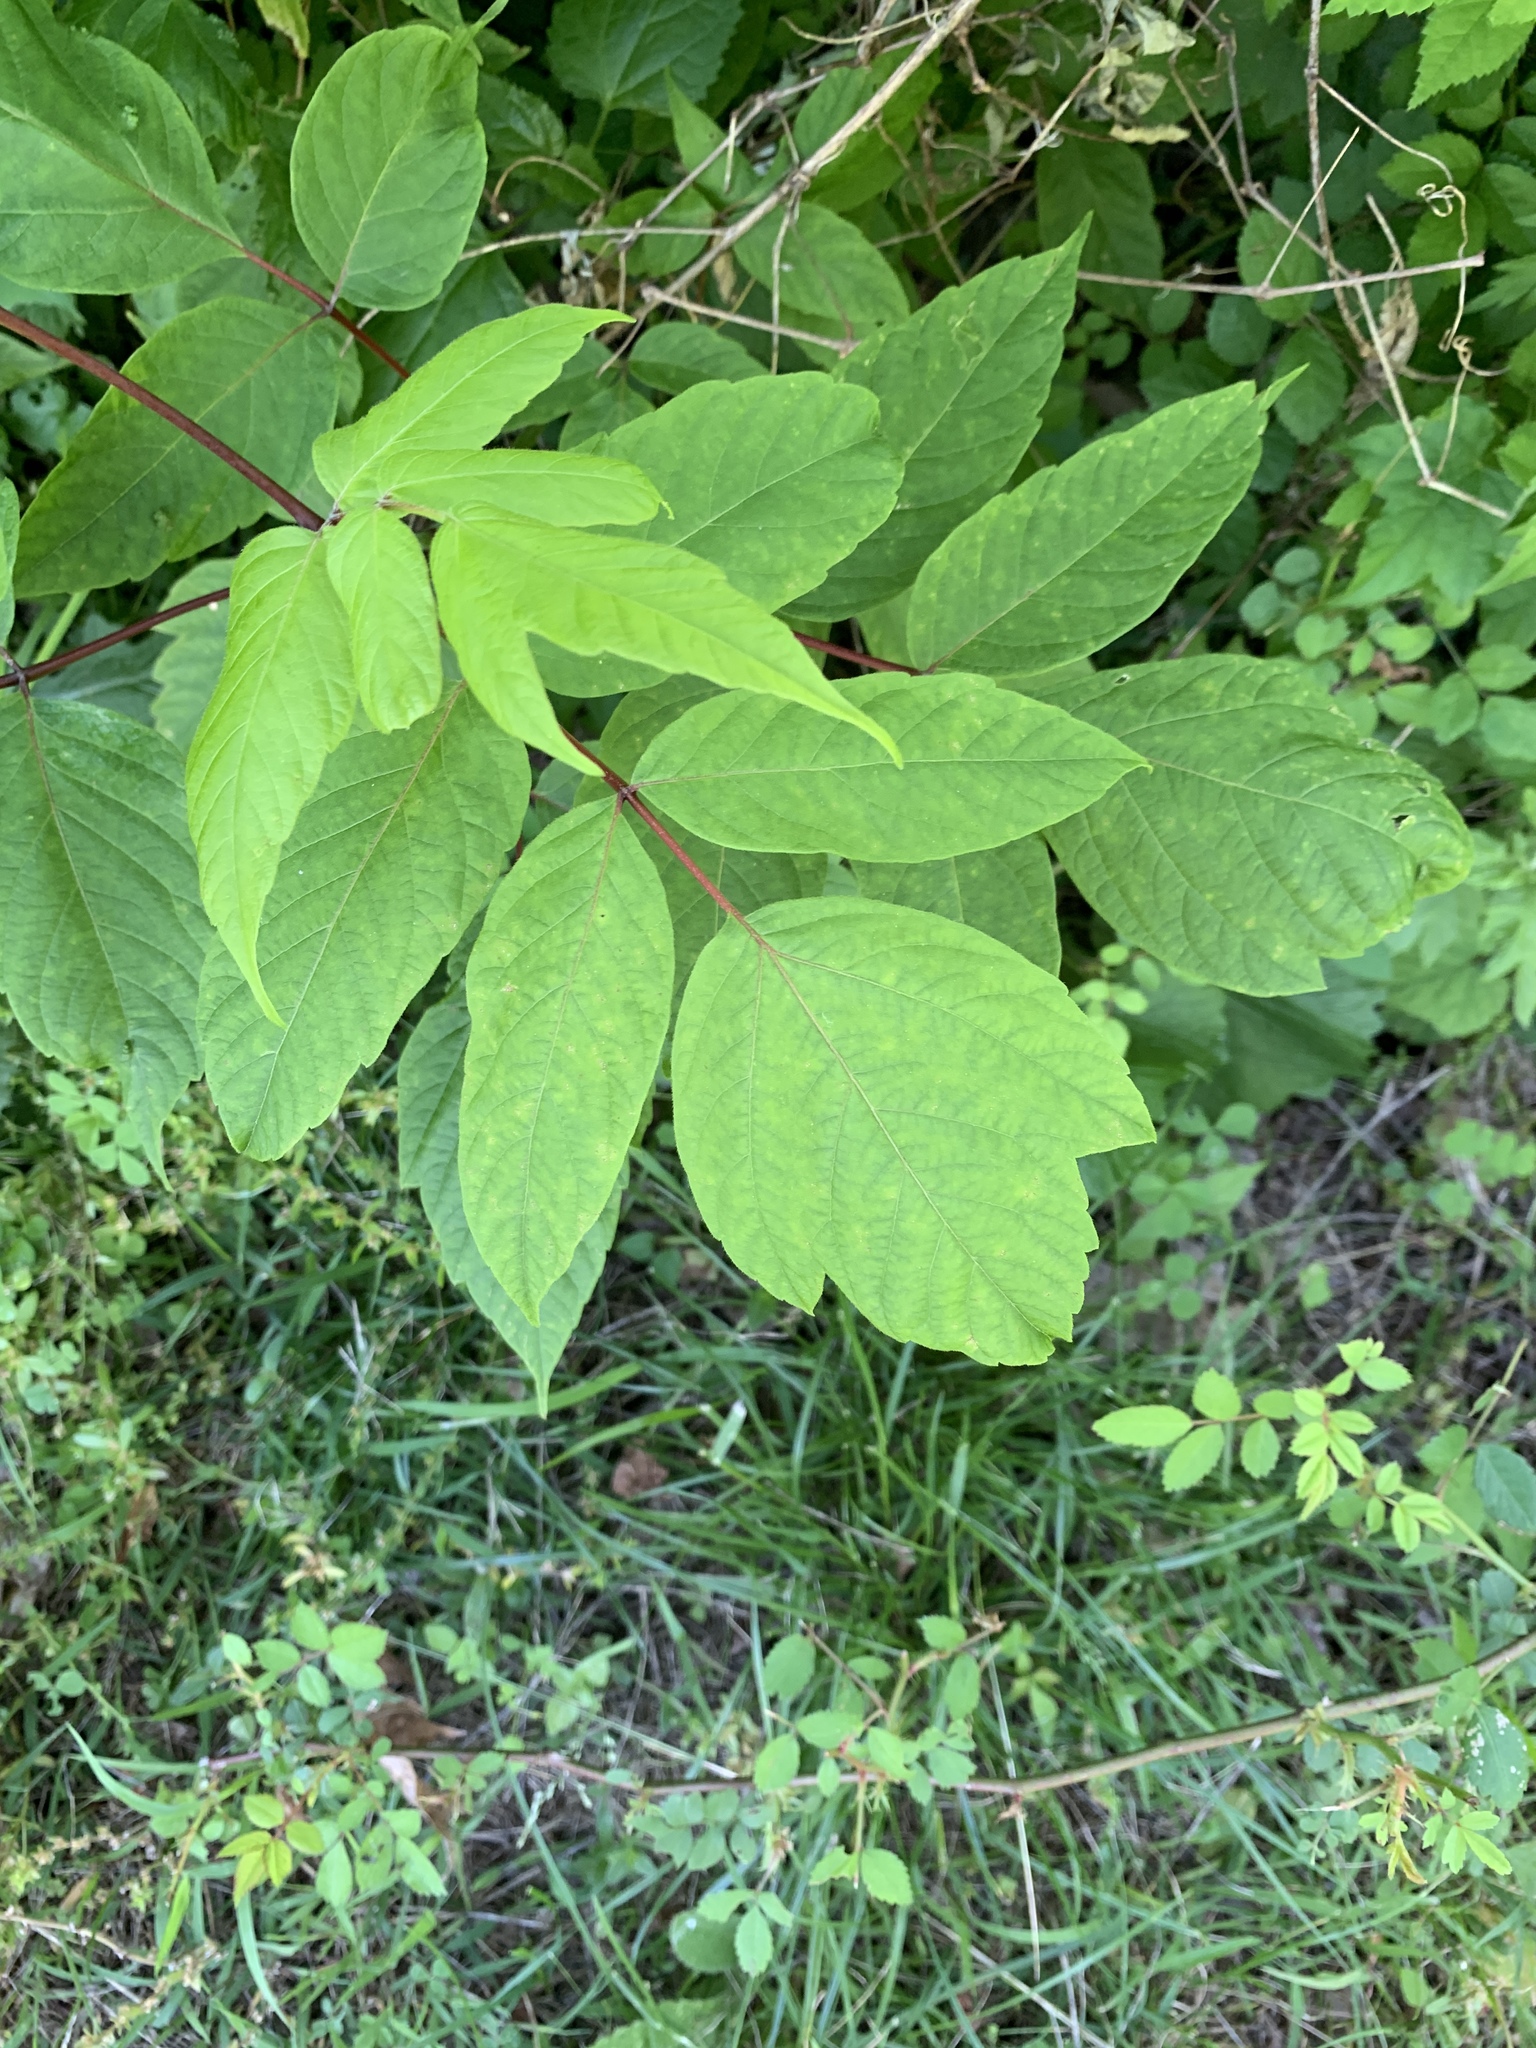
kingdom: Plantae
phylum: Tracheophyta
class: Magnoliopsida
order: Sapindales
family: Sapindaceae
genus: Acer
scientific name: Acer negundo
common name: Ashleaf maple
